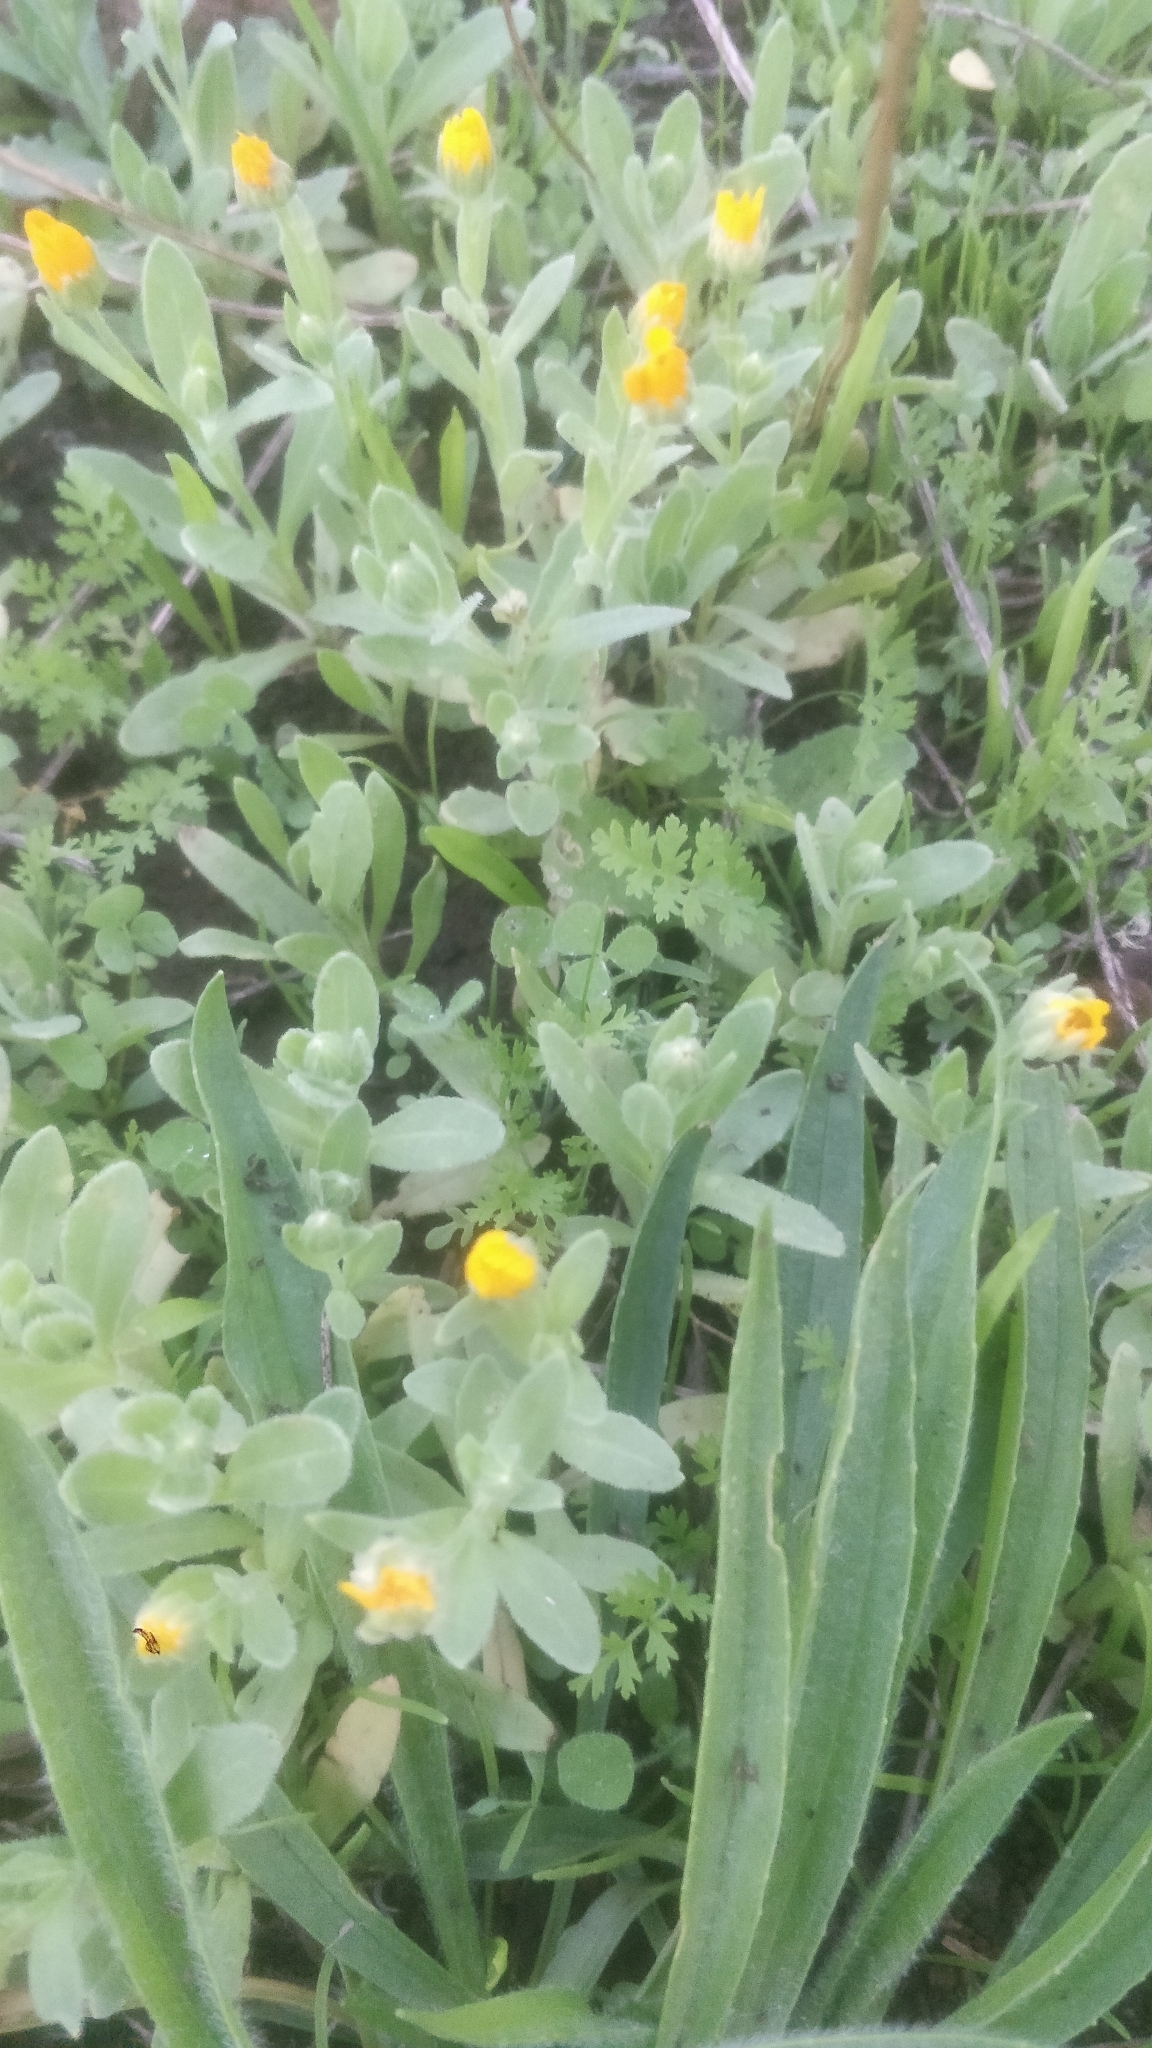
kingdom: Plantae
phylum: Tracheophyta
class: Magnoliopsida
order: Asterales
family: Asteraceae
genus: Calendula
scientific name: Calendula arvensis
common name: Field marigold
